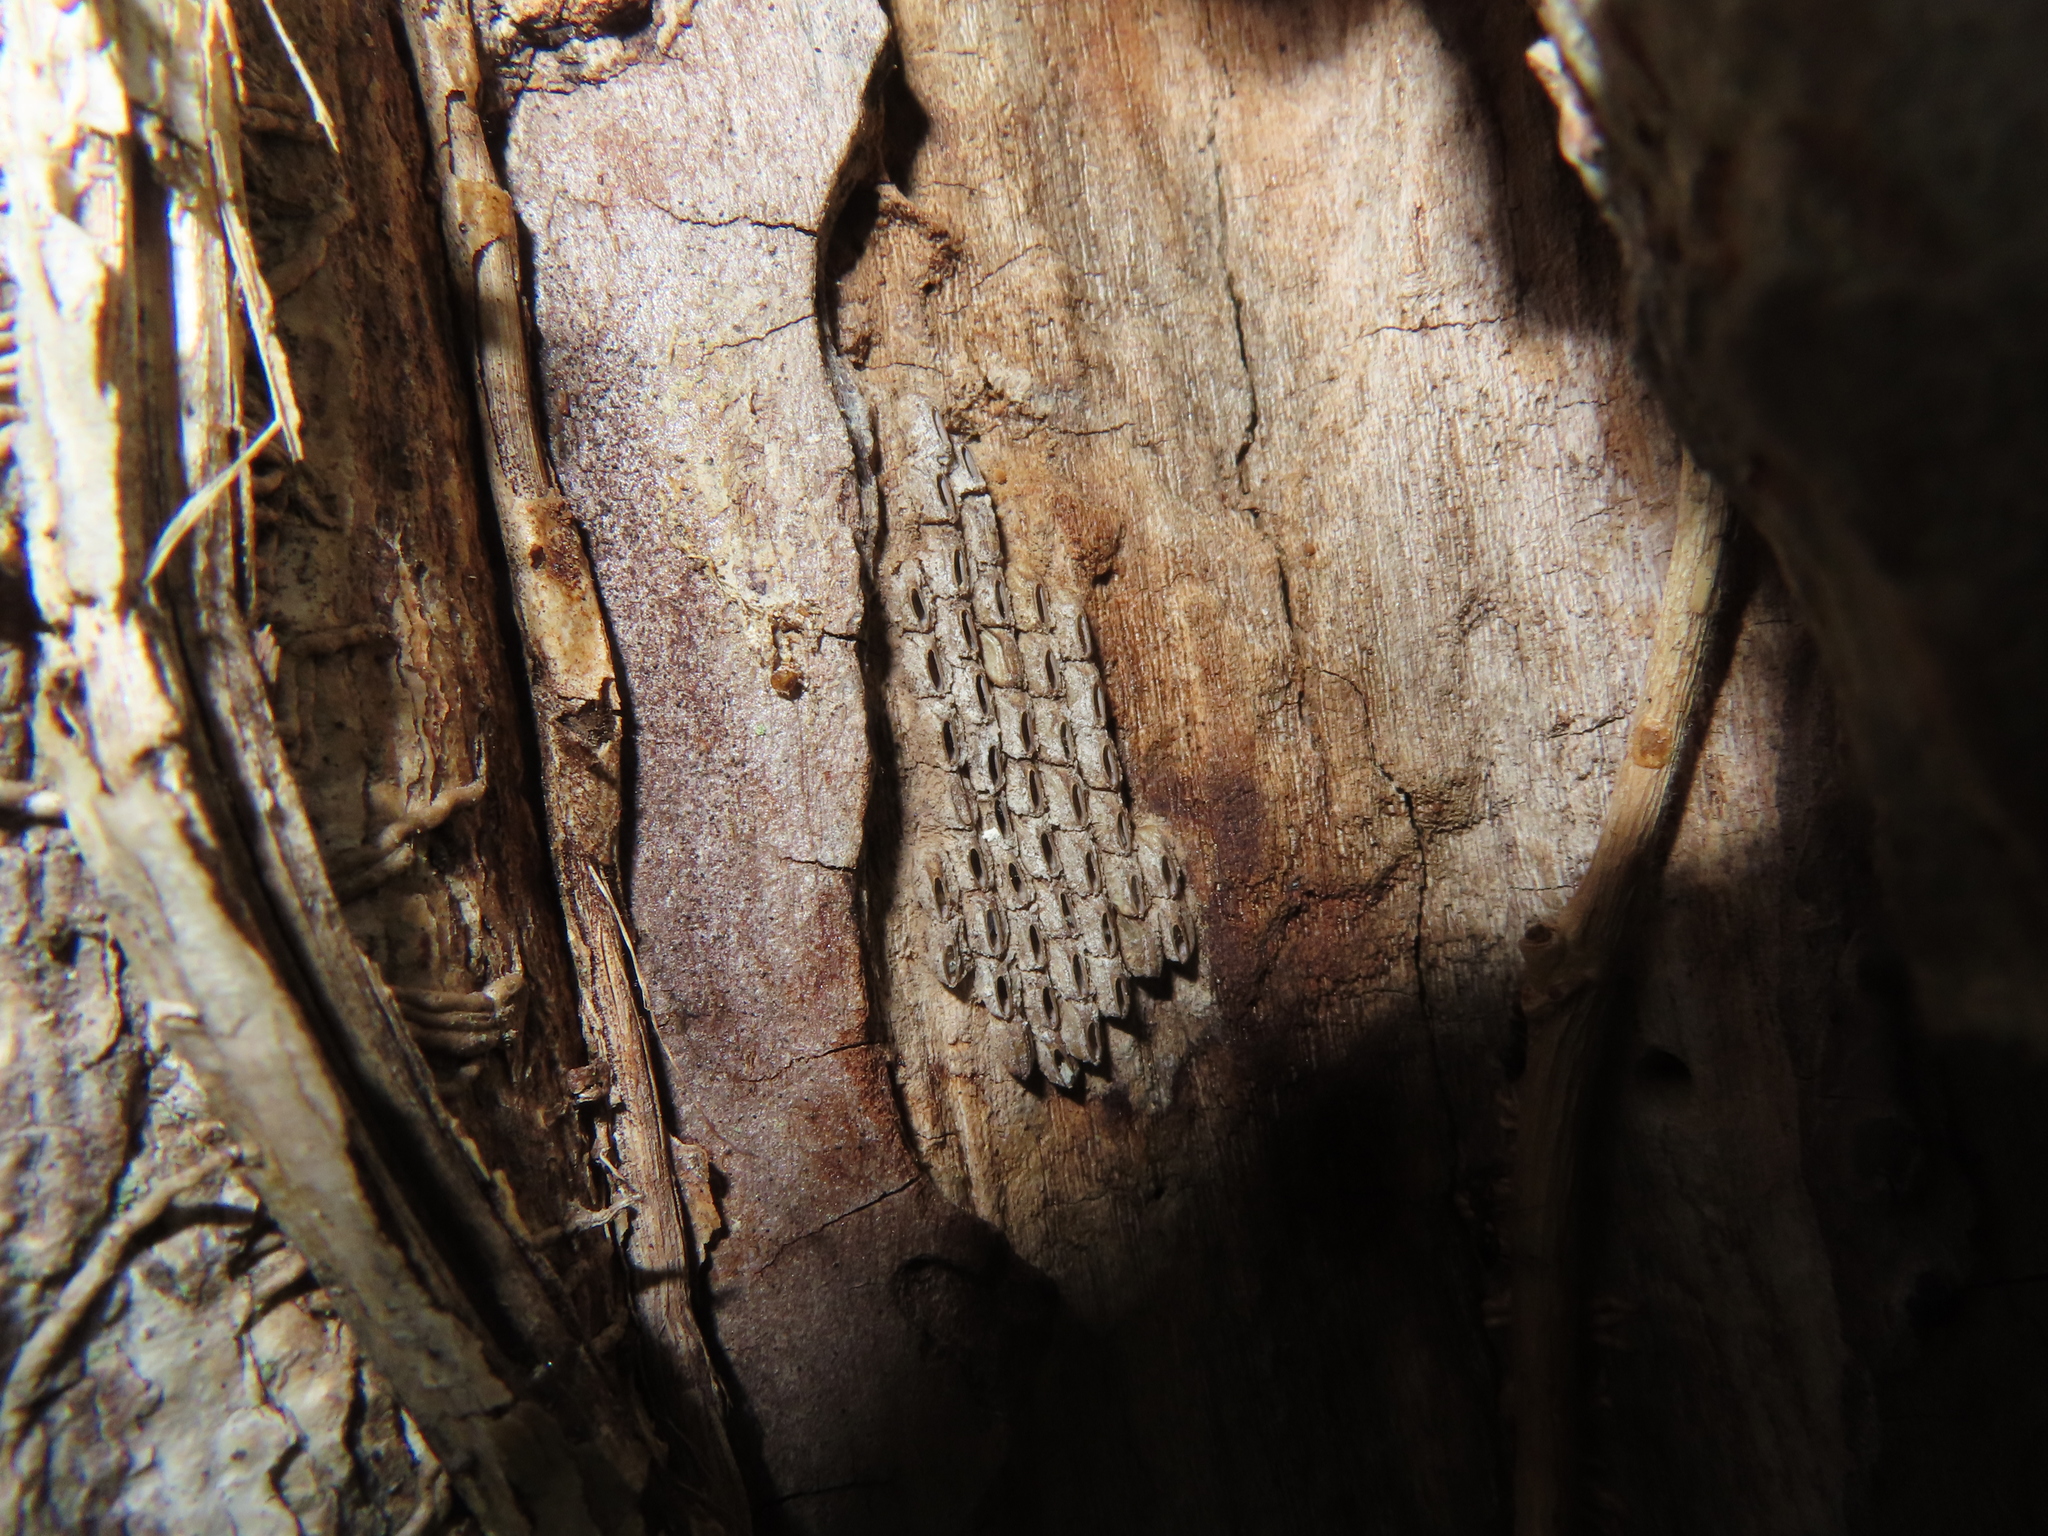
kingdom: Animalia
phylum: Arthropoda
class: Insecta
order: Hemiptera
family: Fulgoridae
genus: Lycorma
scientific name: Lycorma delicatula
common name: Spotted lanternfly
